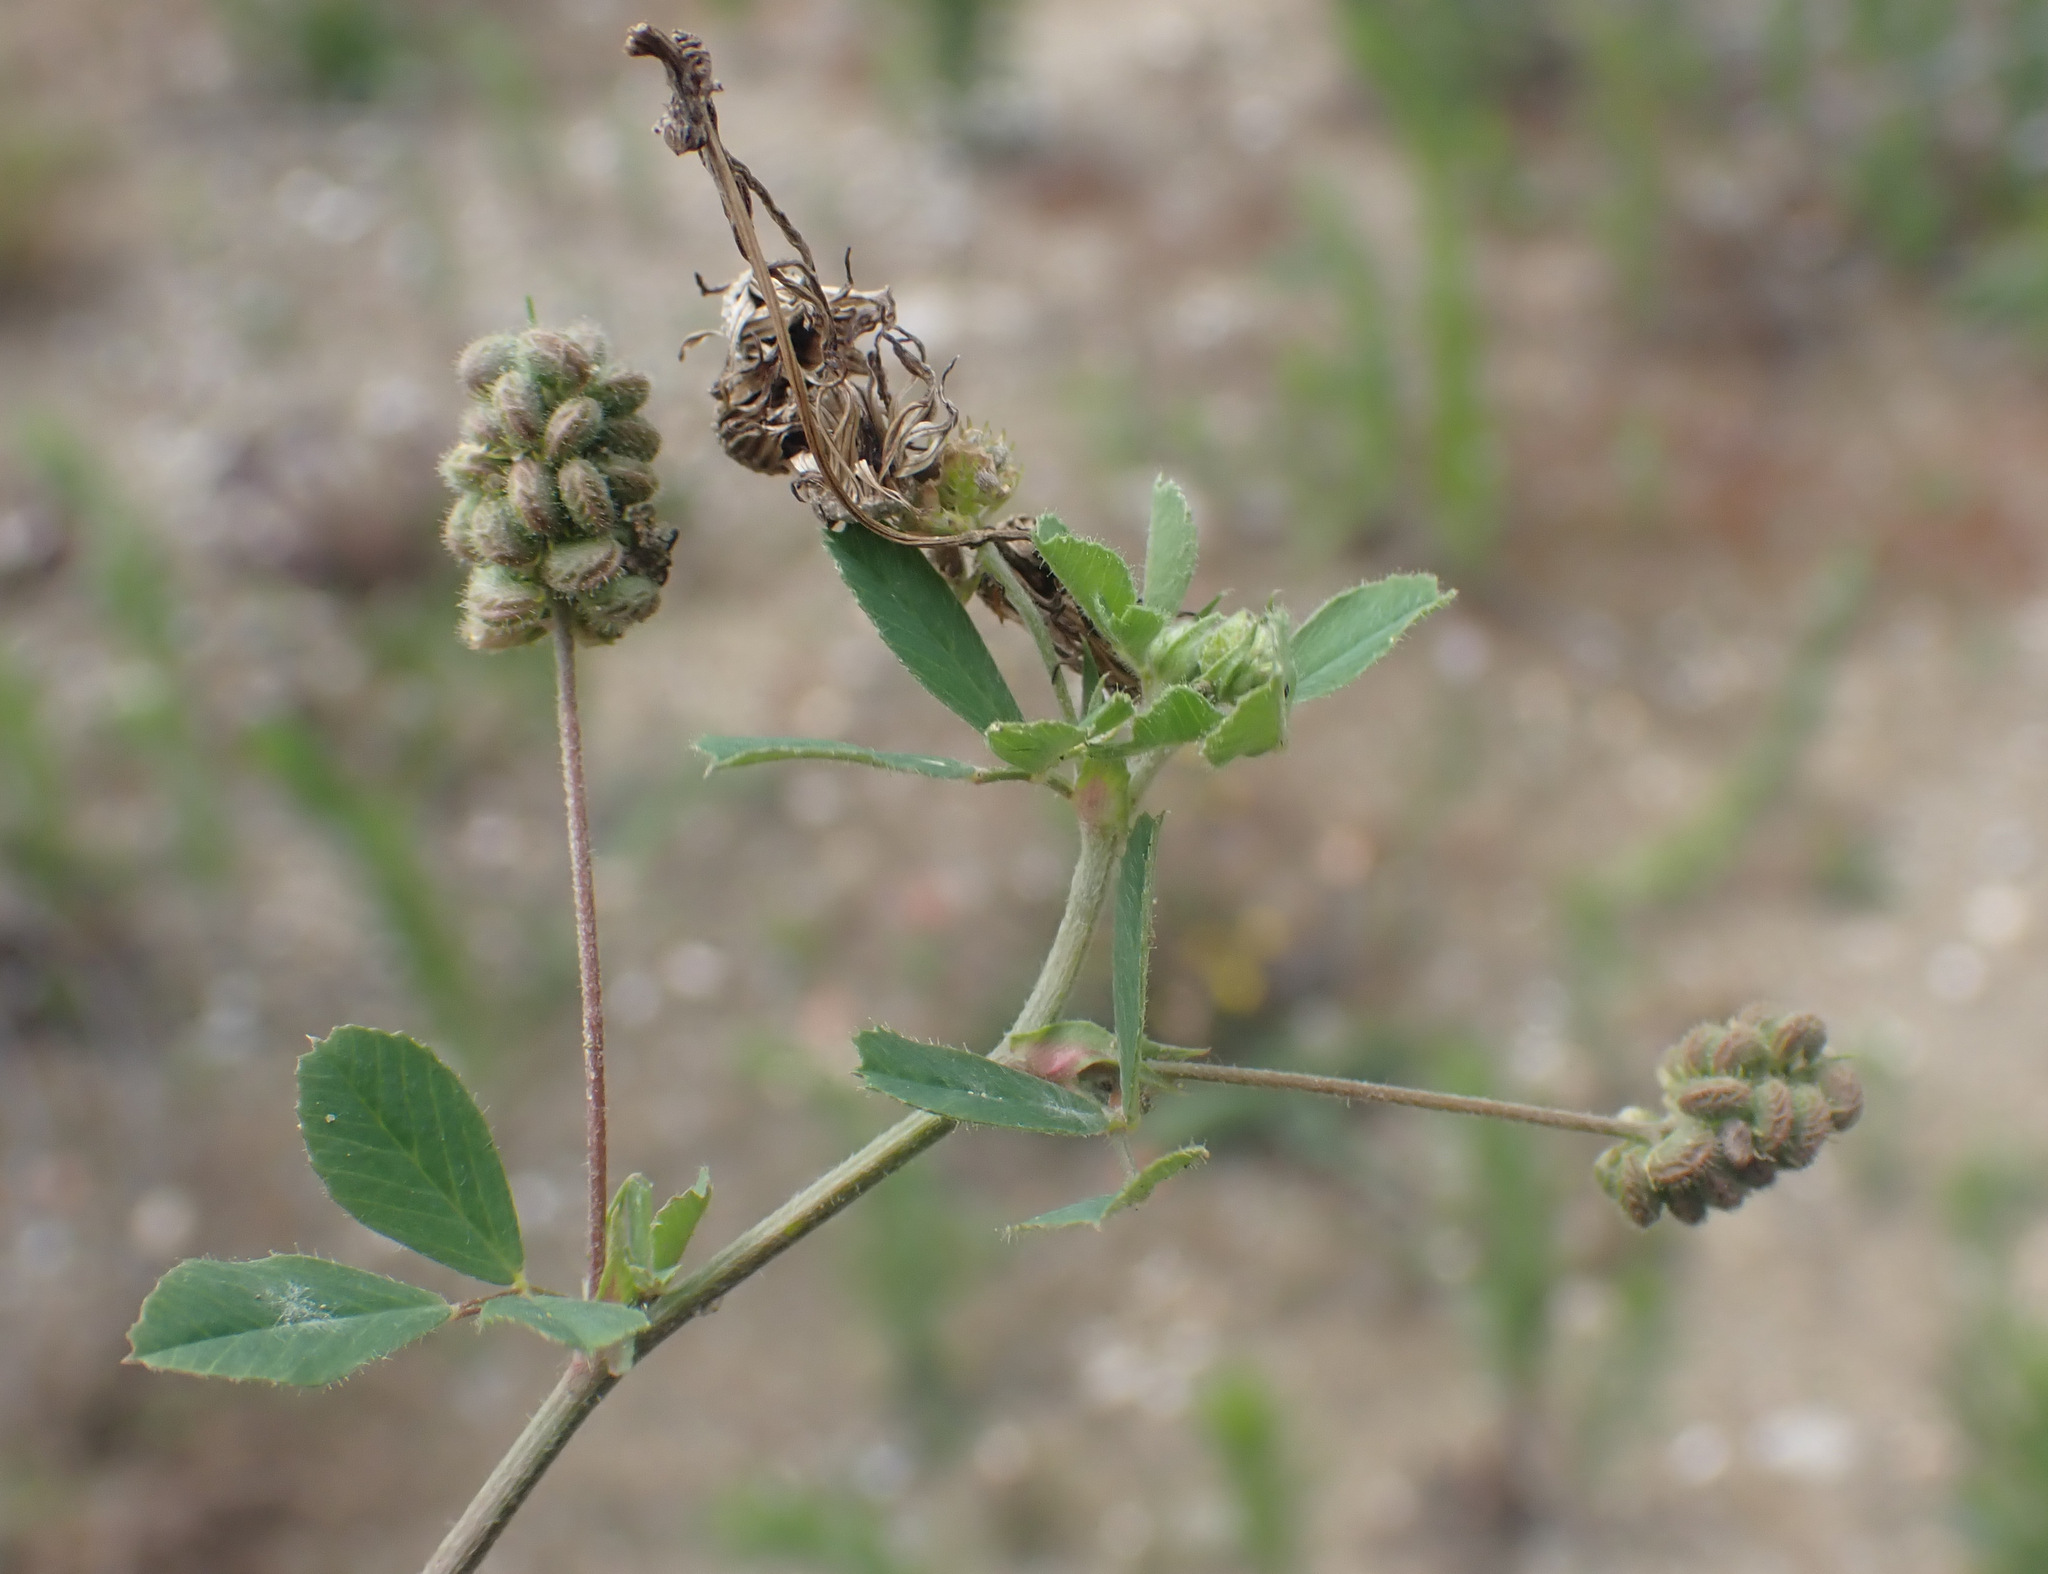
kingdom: Plantae
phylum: Tracheophyta
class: Magnoliopsida
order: Fabales
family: Fabaceae
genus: Medicago
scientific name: Medicago lupulina
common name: Black medick
